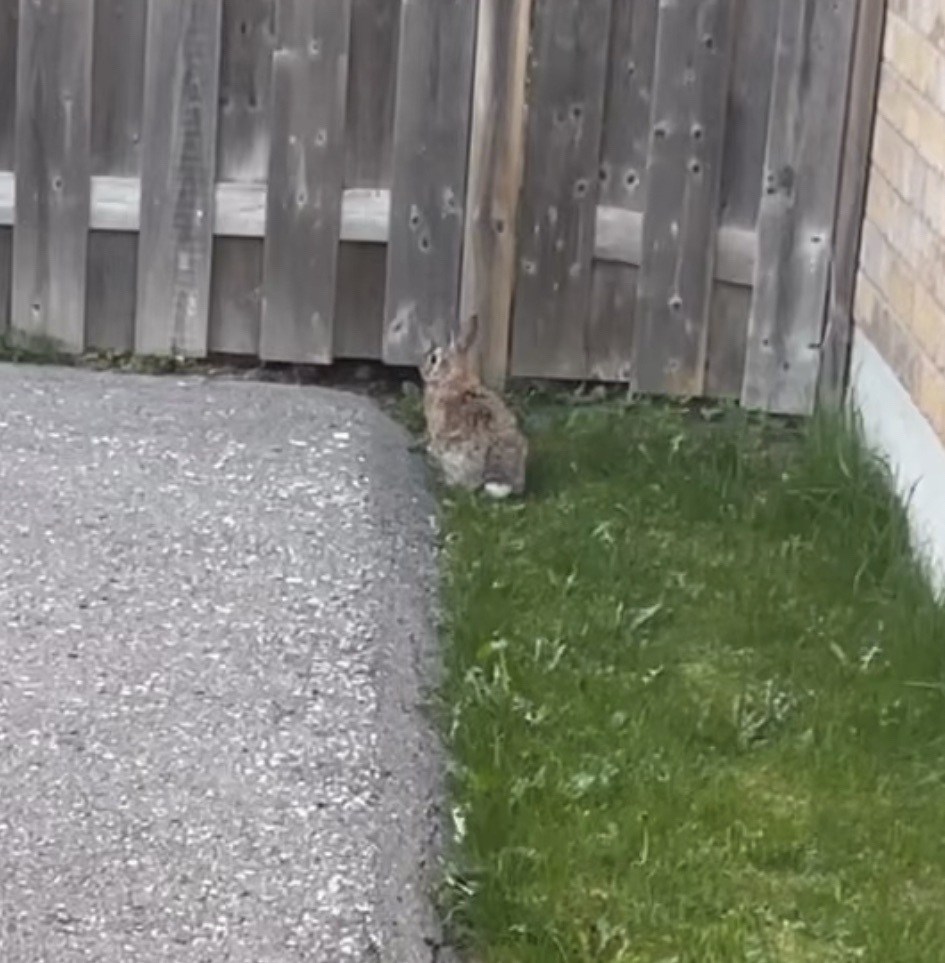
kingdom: Animalia
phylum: Chordata
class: Mammalia
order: Lagomorpha
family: Leporidae
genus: Sylvilagus
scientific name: Sylvilagus floridanus
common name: Eastern cottontail
